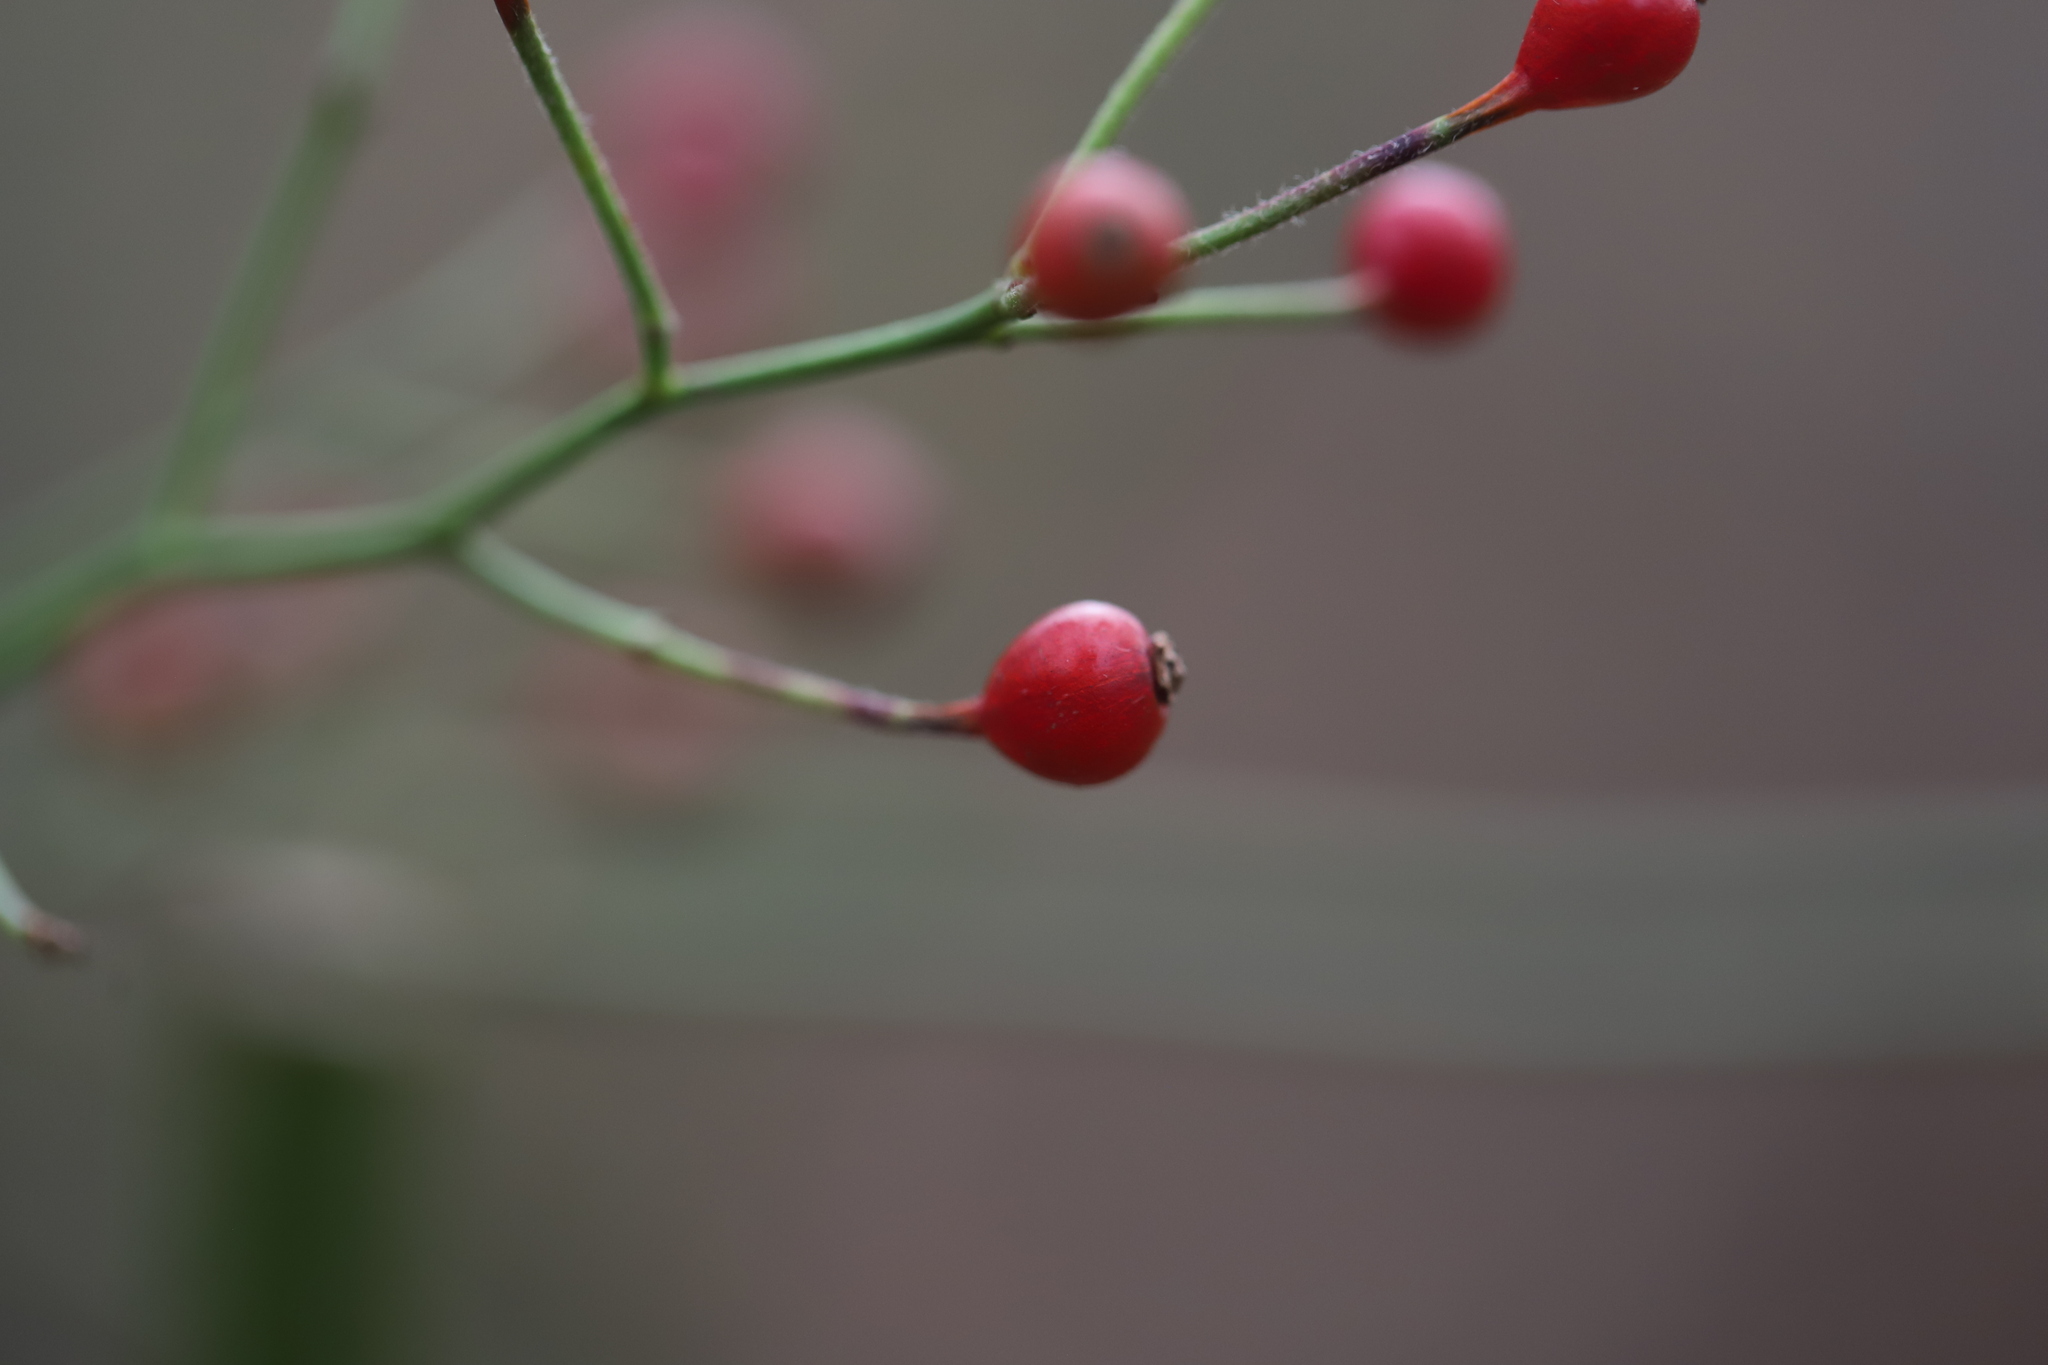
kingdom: Plantae
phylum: Tracheophyta
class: Magnoliopsida
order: Rosales
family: Rosaceae
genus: Rosa
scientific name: Rosa multiflora
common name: Multiflora rose
